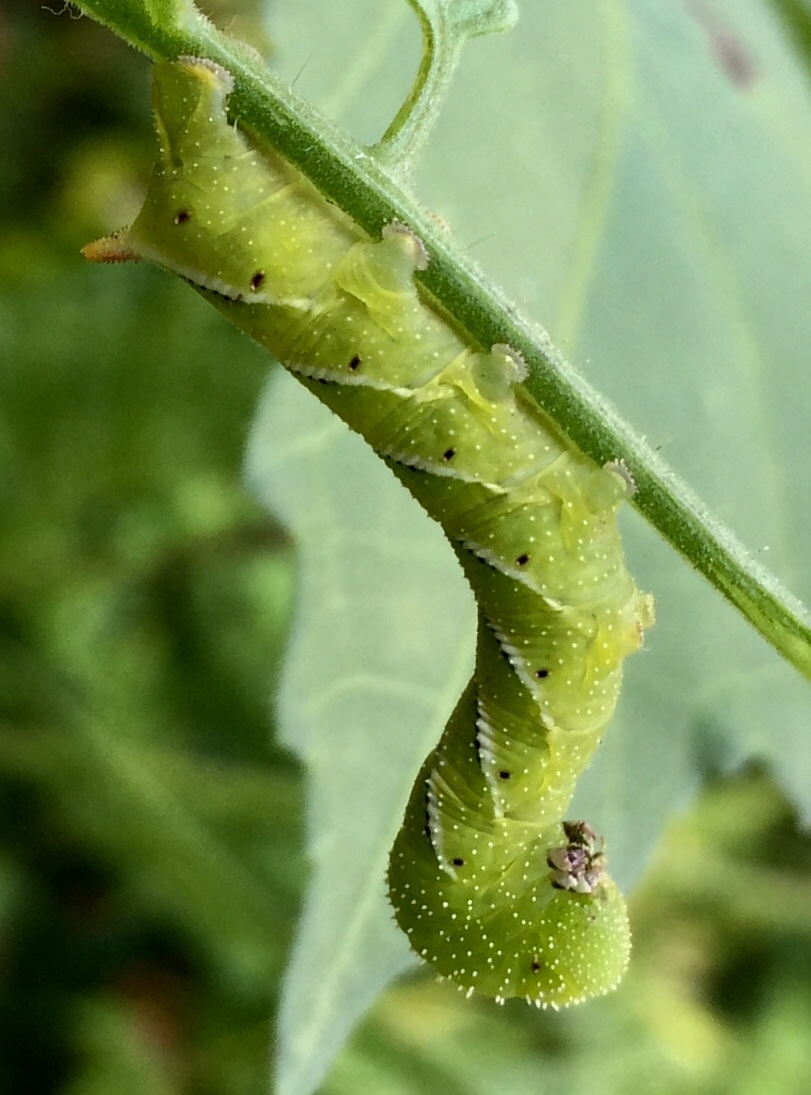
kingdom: Animalia
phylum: Arthropoda
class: Insecta
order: Lepidoptera
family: Sphingidae
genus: Manduca
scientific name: Manduca sexta
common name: Carolina sphinx
